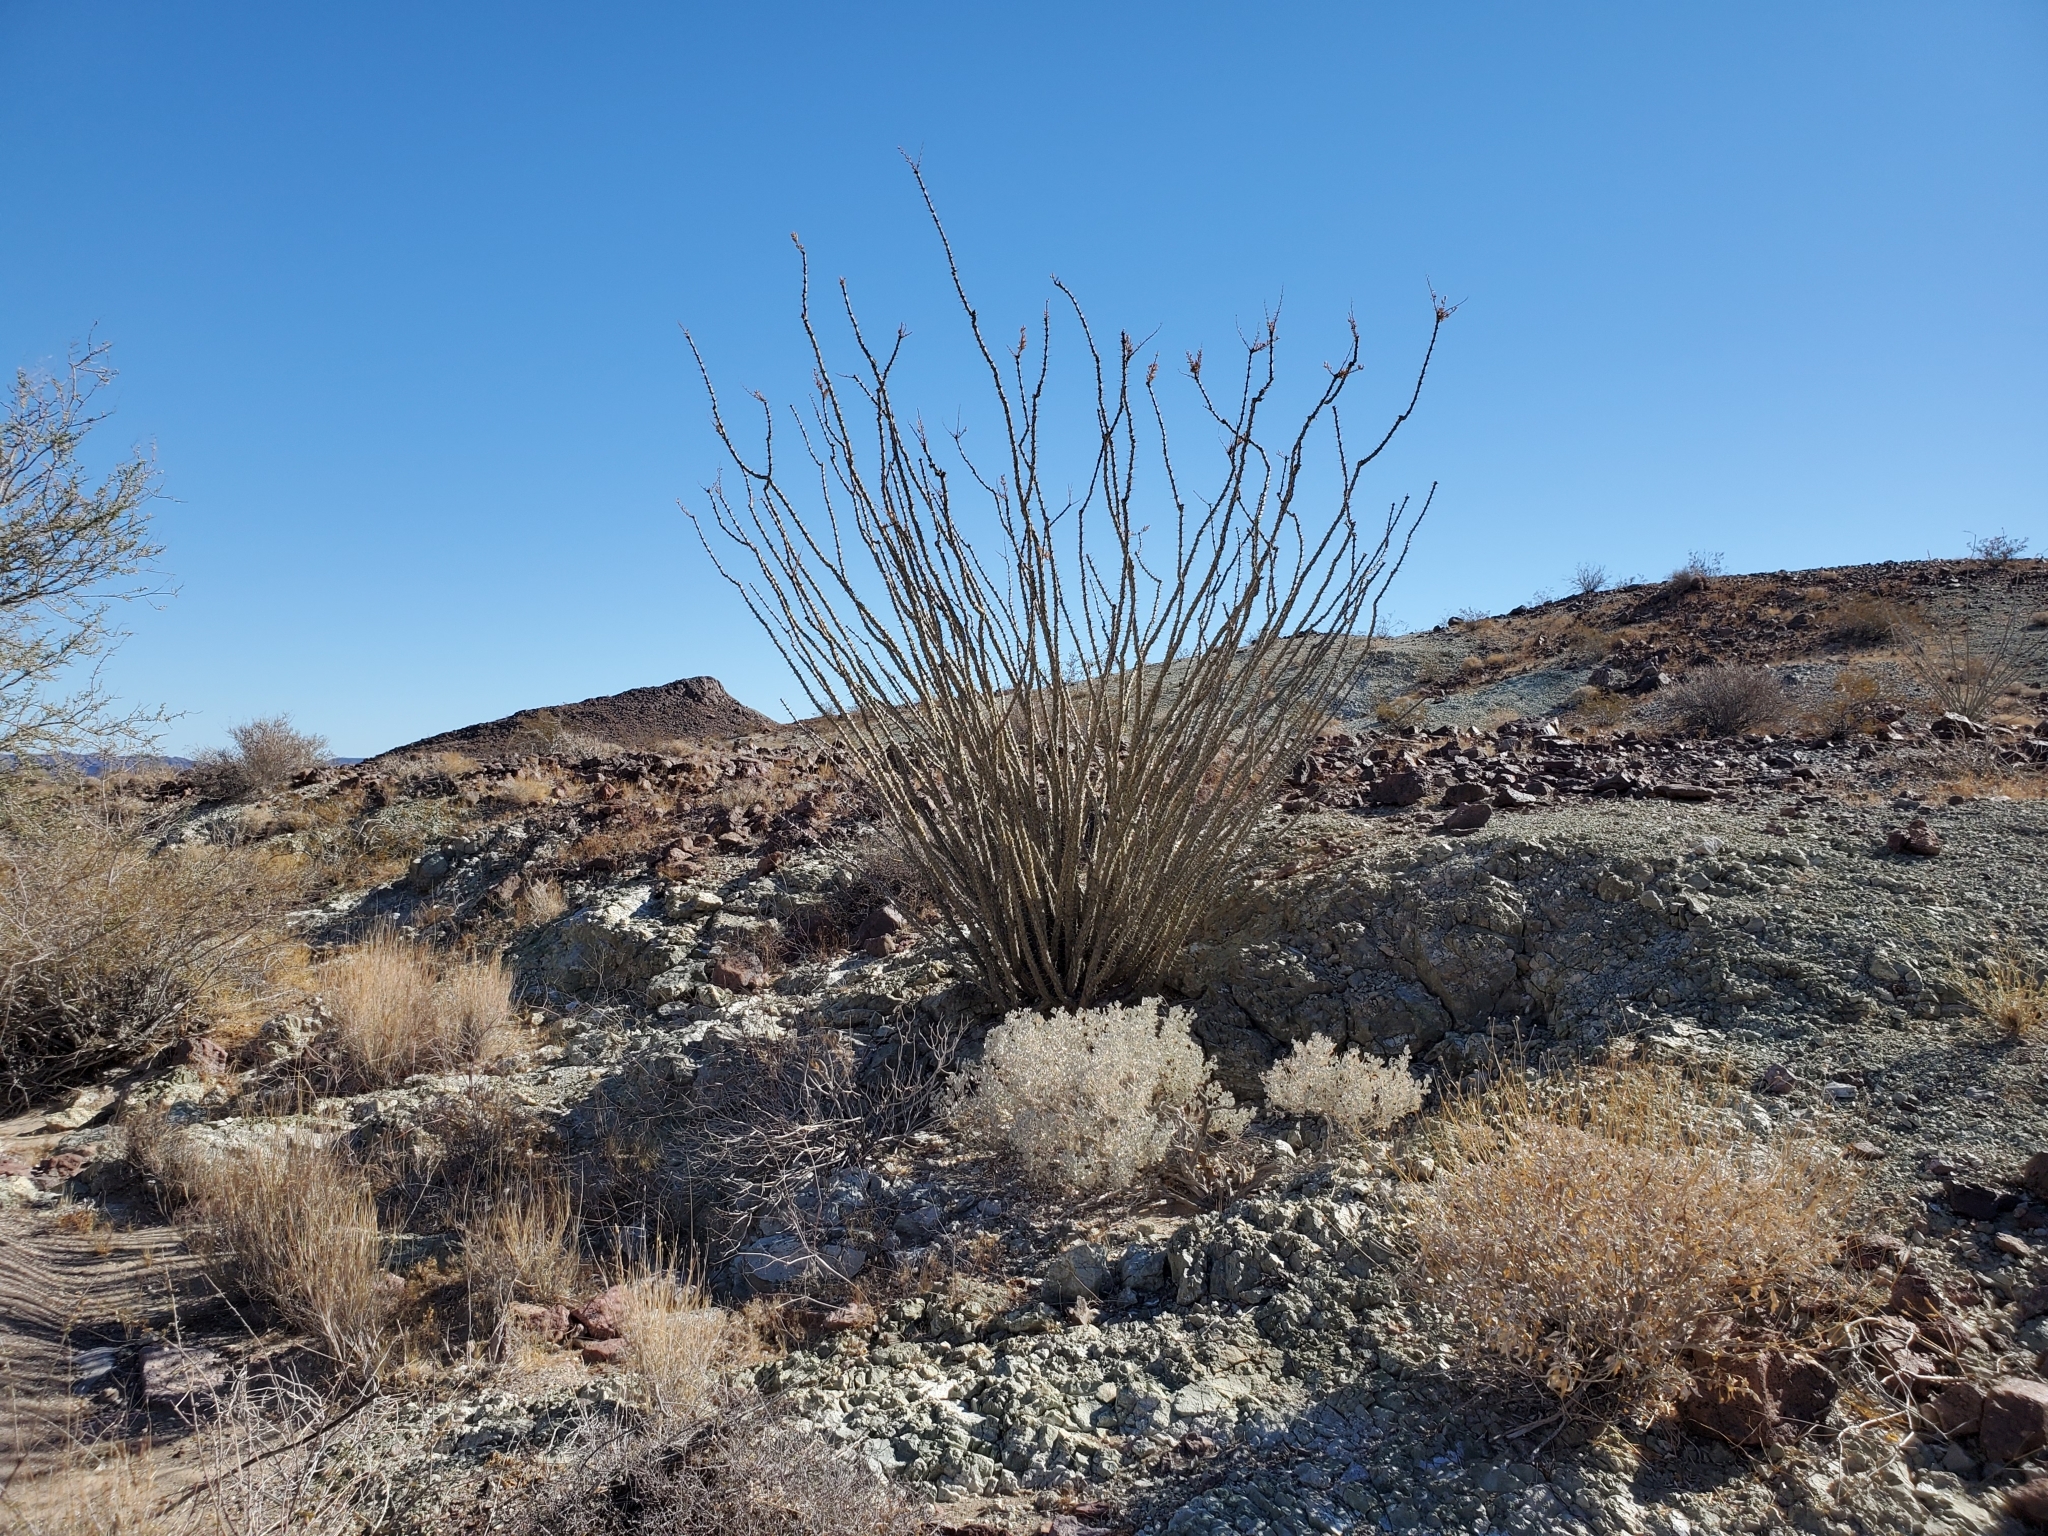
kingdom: Plantae
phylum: Tracheophyta
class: Magnoliopsida
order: Ericales
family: Fouquieriaceae
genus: Fouquieria
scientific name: Fouquieria splendens
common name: Vine-cactus
